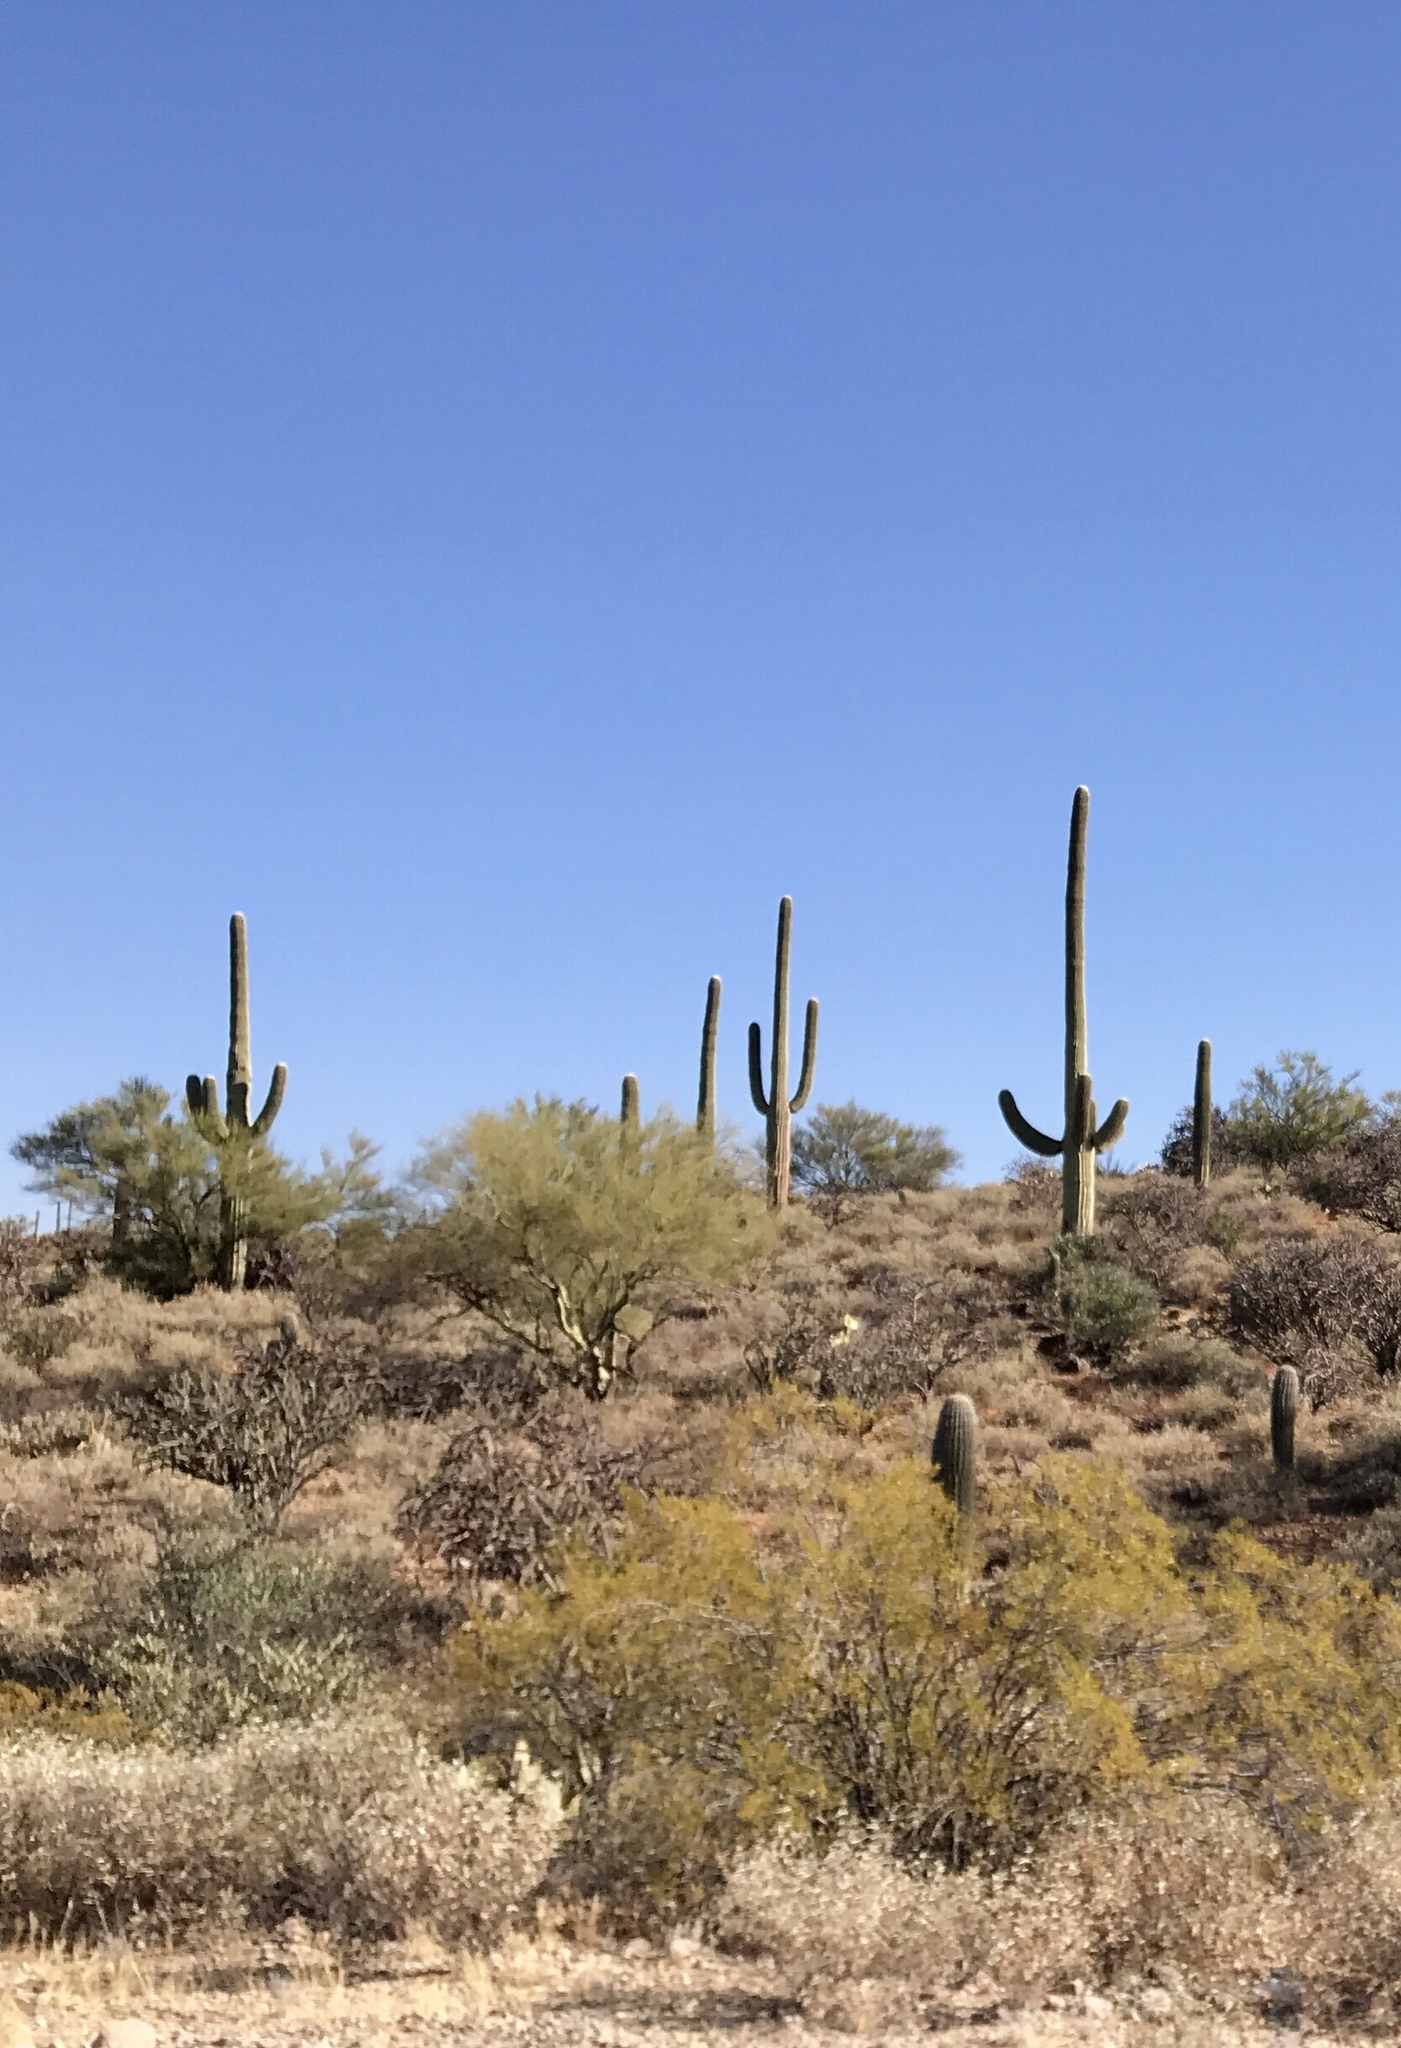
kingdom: Plantae
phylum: Tracheophyta
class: Magnoliopsida
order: Caryophyllales
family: Cactaceae
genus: Carnegiea
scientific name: Carnegiea gigantea
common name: Saguaro
